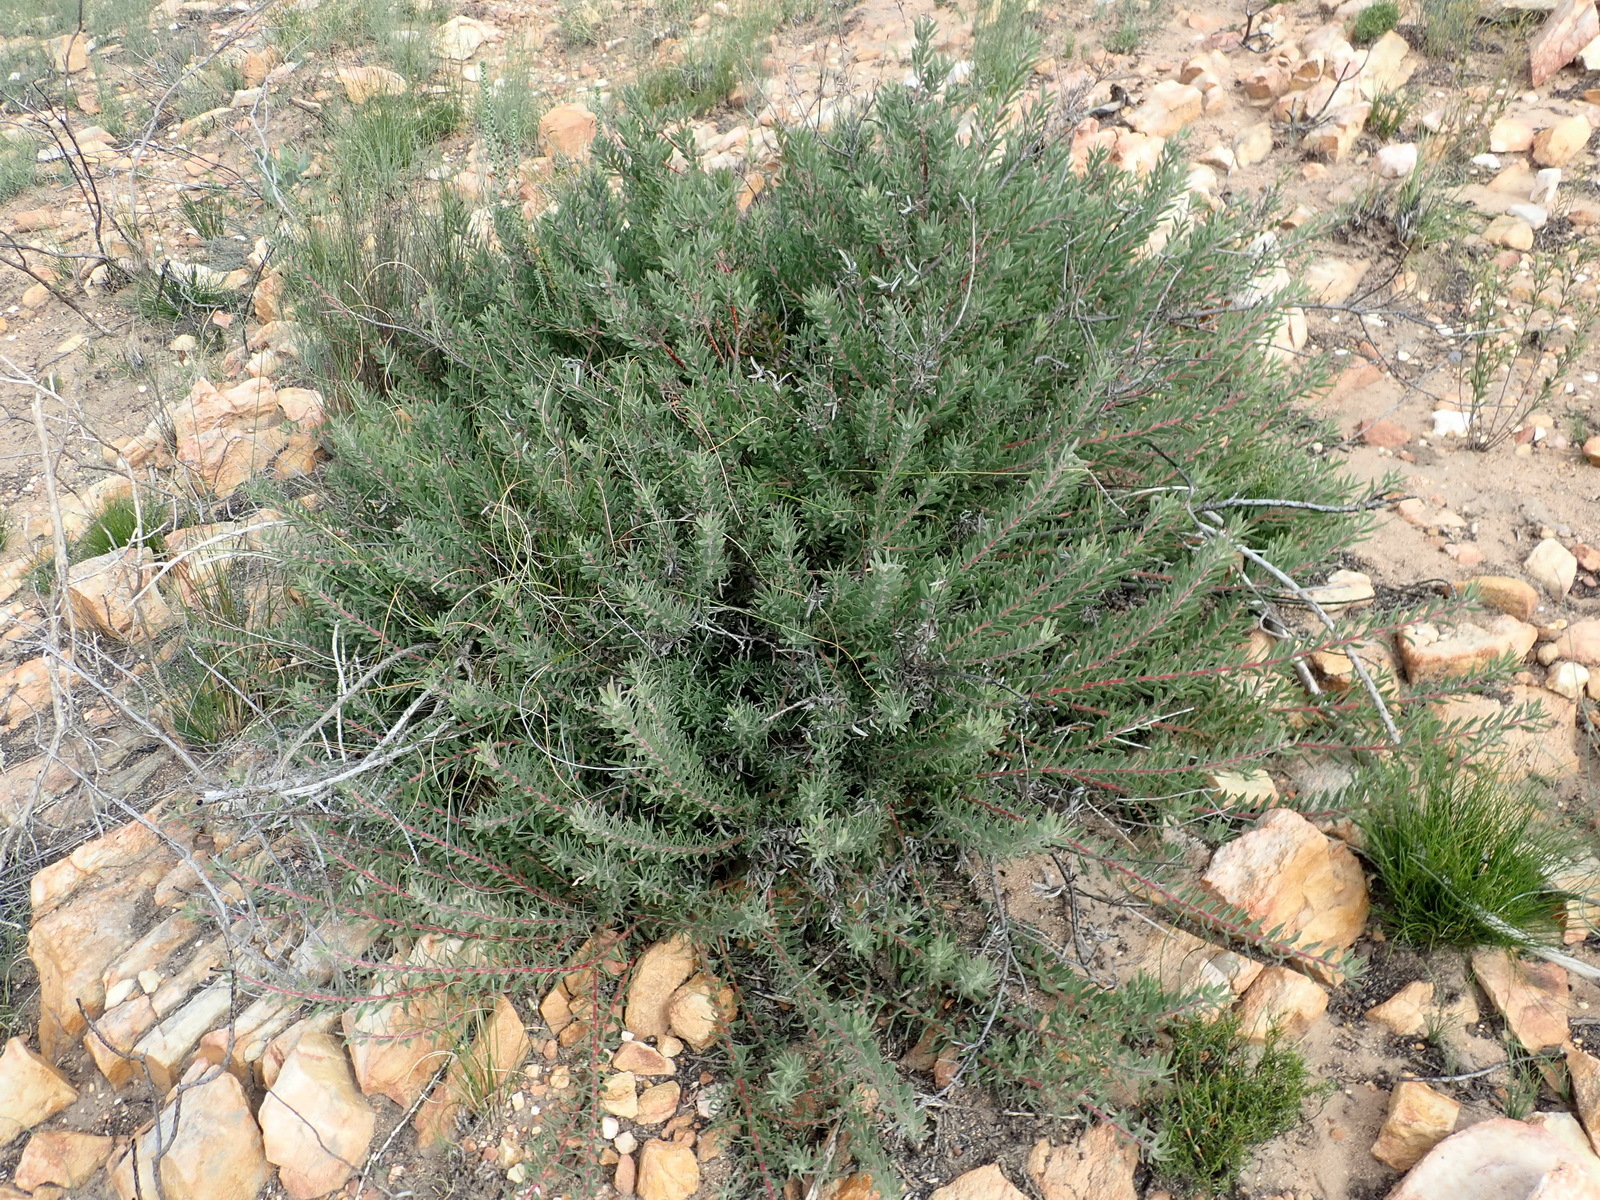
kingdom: Plantae
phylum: Tracheophyta
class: Magnoliopsida
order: Proteales
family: Proteaceae
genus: Leucospermum
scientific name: Leucospermum royenifolium
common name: Eastern pincushion
